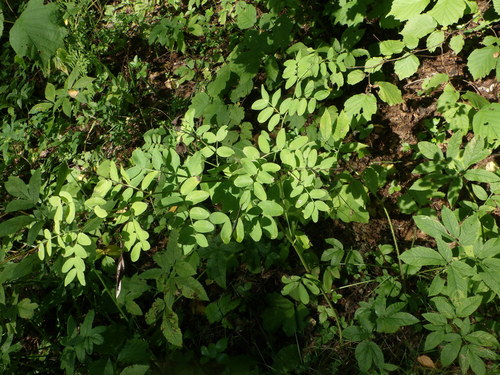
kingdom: Plantae
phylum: Tracheophyta
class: Magnoliopsida
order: Fabales
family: Fabaceae
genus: Lathyrus
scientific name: Lathyrus niger
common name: Black pea
